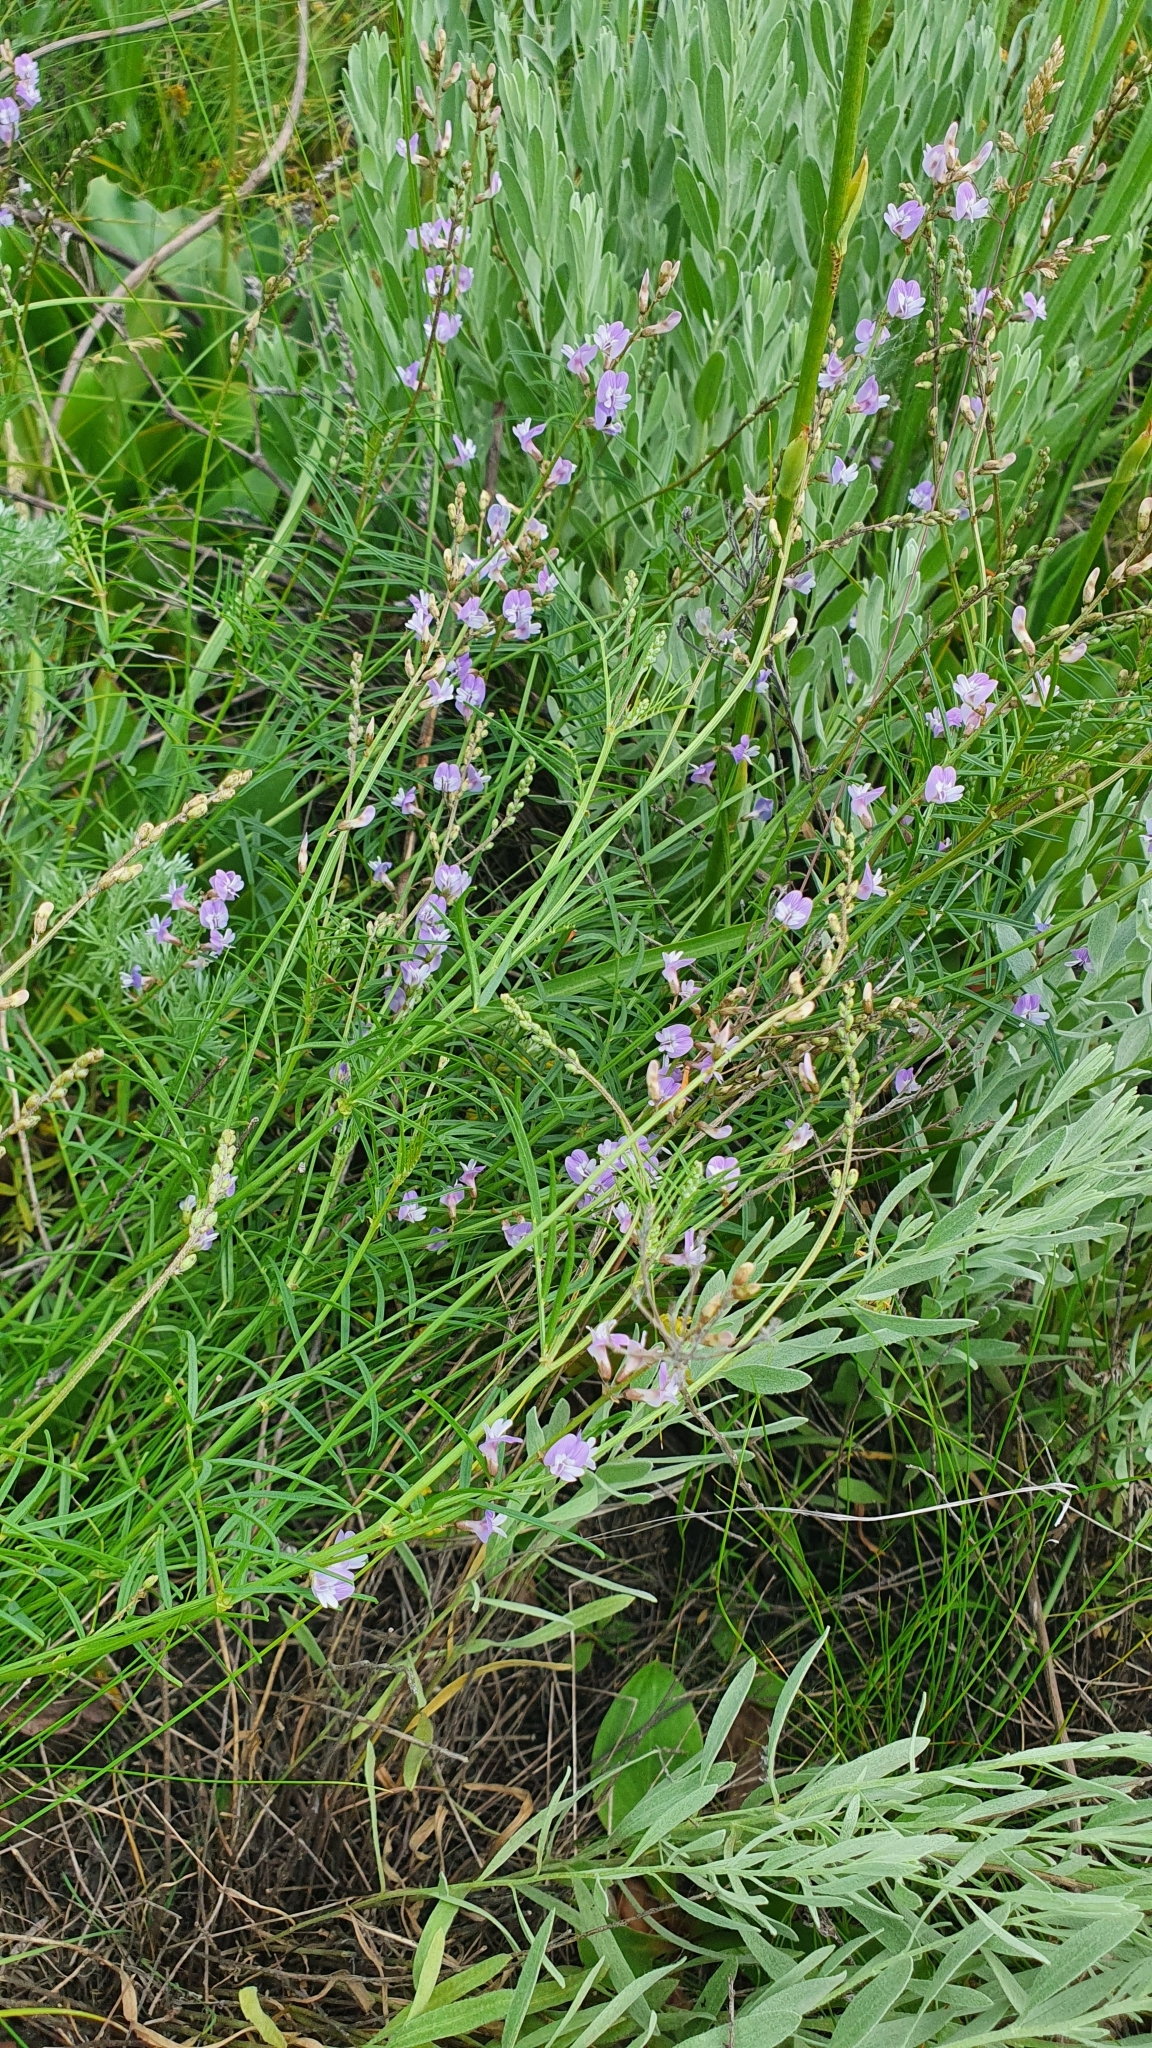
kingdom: Plantae
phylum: Tracheophyta
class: Magnoliopsida
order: Fabales
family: Fabaceae
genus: Astragalus
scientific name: Astragalus austriacus
